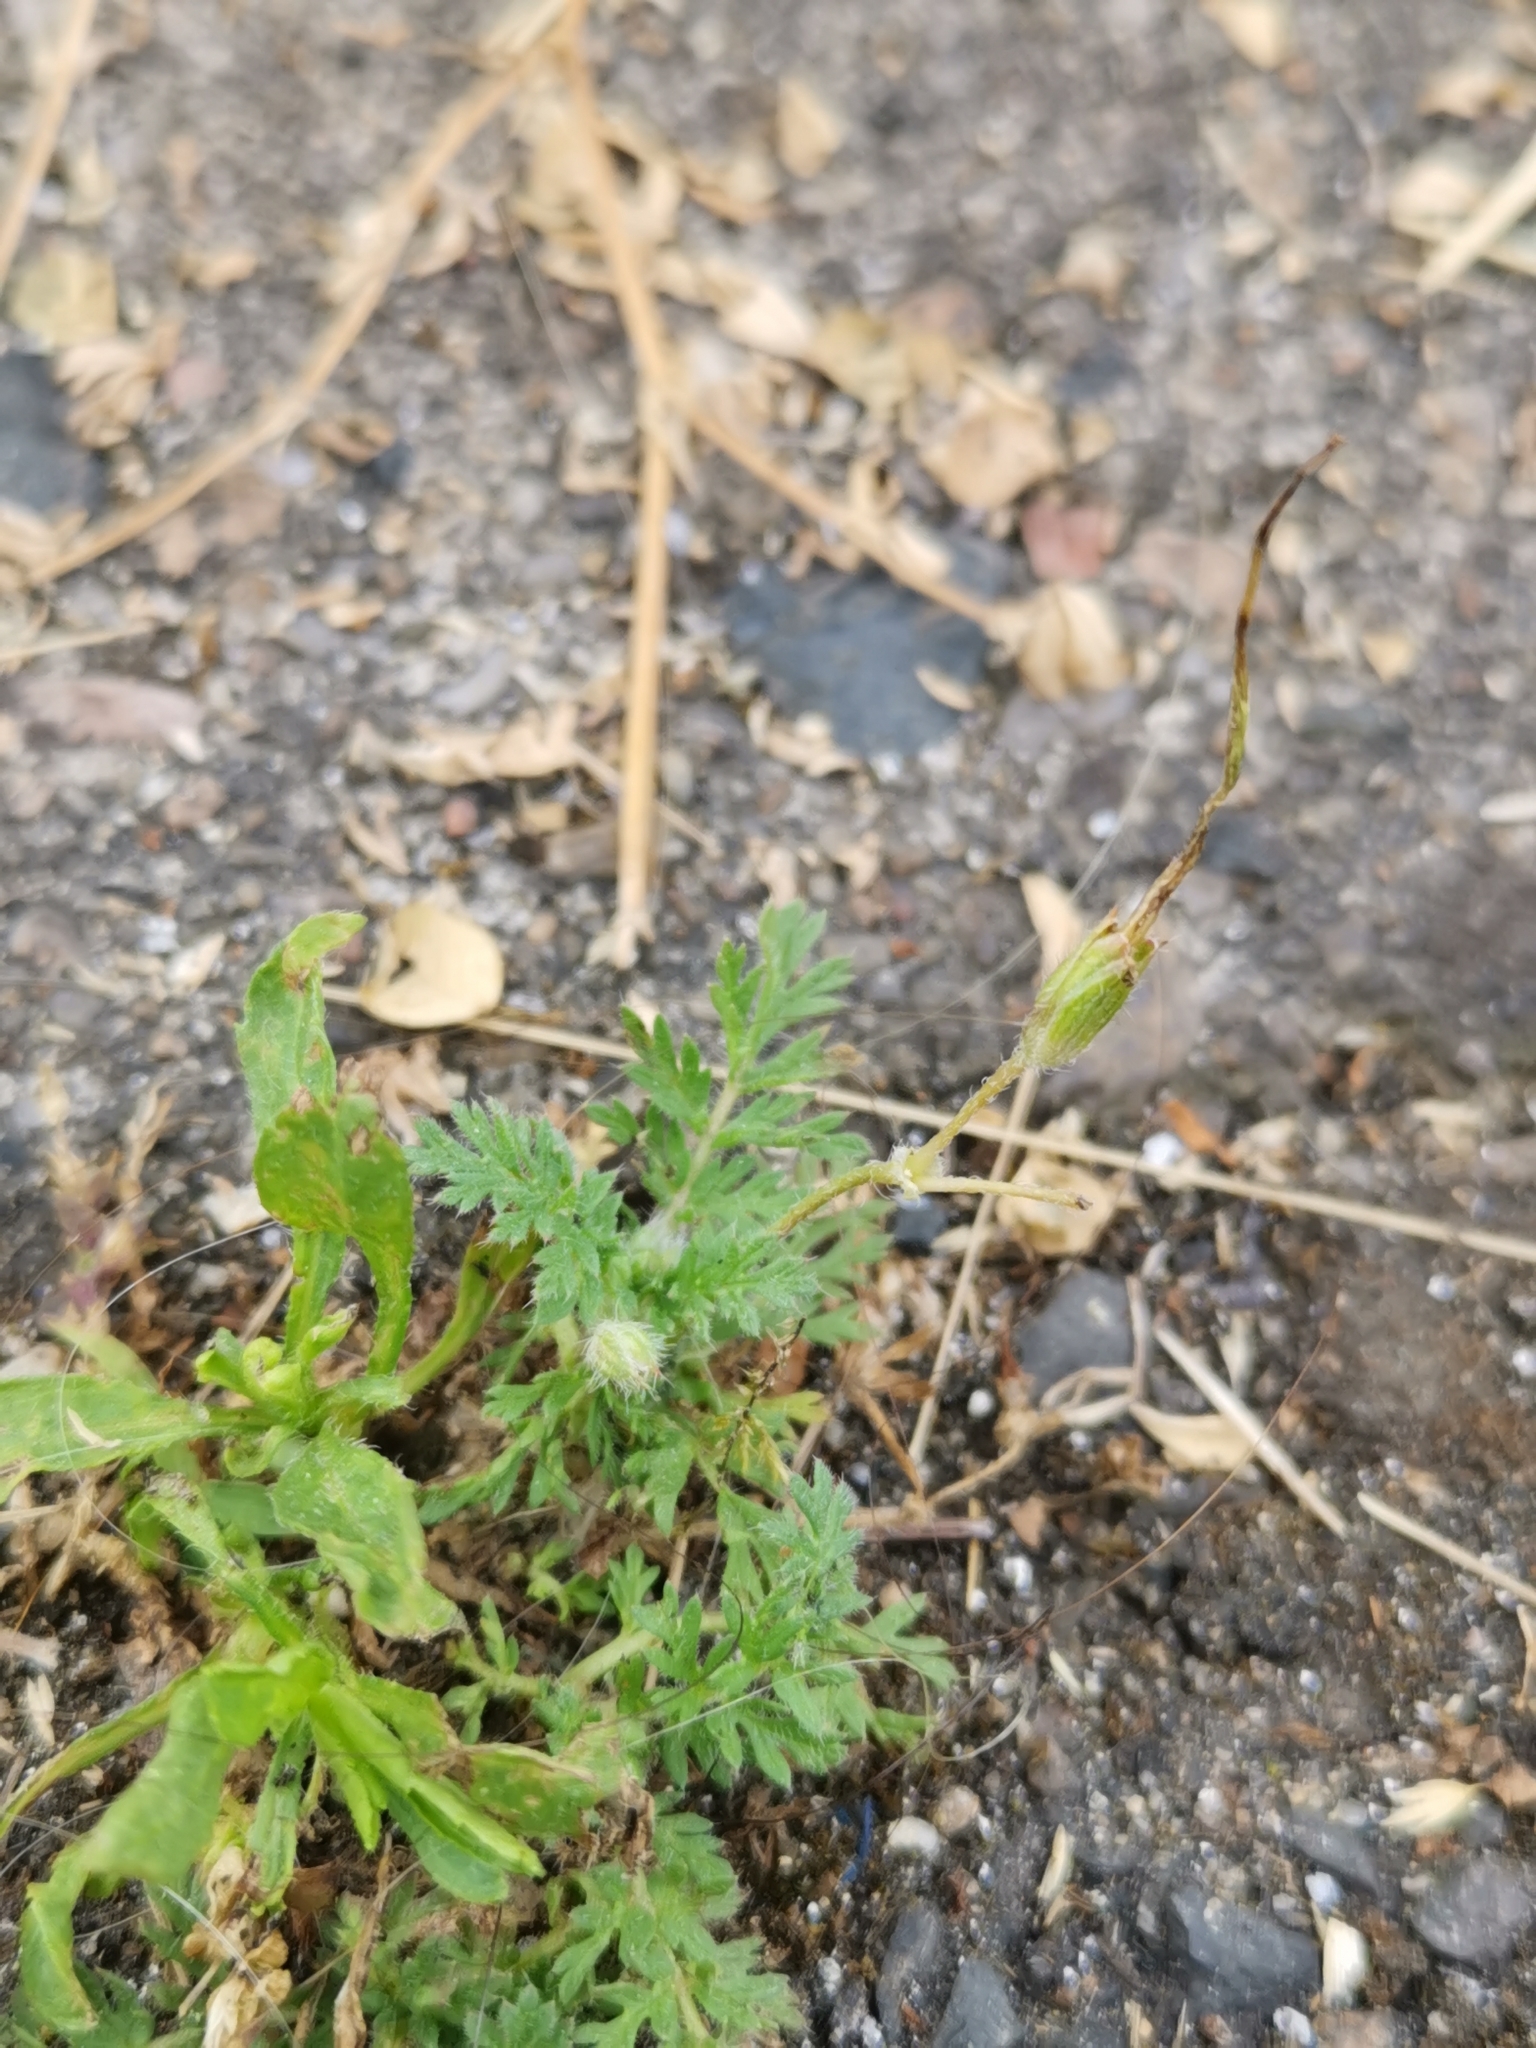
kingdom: Plantae
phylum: Tracheophyta
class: Magnoliopsida
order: Geraniales
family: Geraniaceae
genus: Erodium
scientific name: Erodium cicutarium
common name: Common stork's-bill
